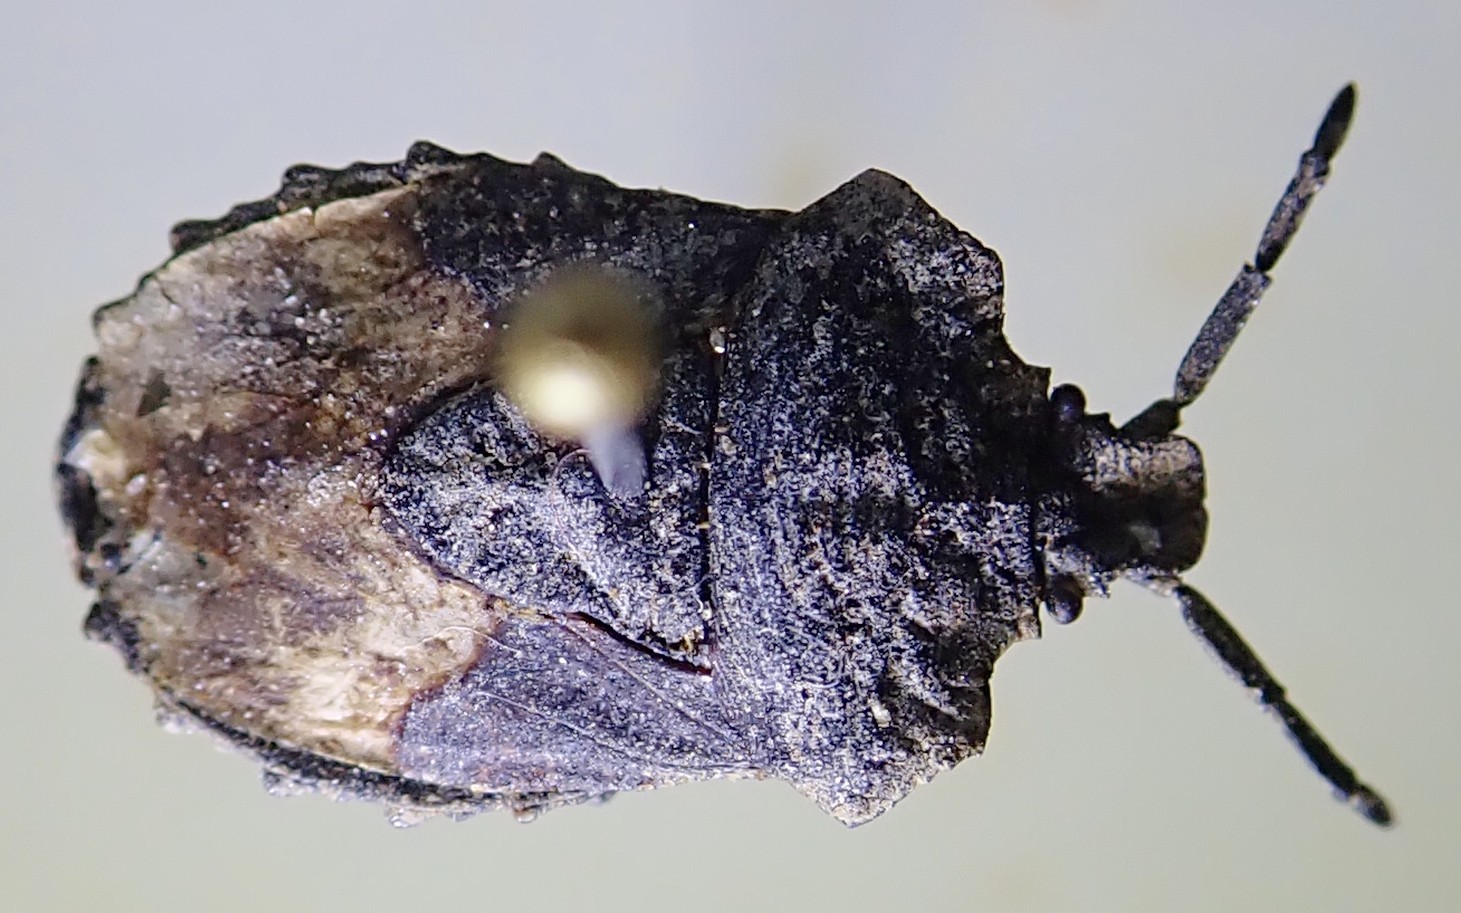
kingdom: Animalia
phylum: Arthropoda
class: Insecta
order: Hemiptera
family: Dinidoridae
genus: Megymenum
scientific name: Megymenum affine
